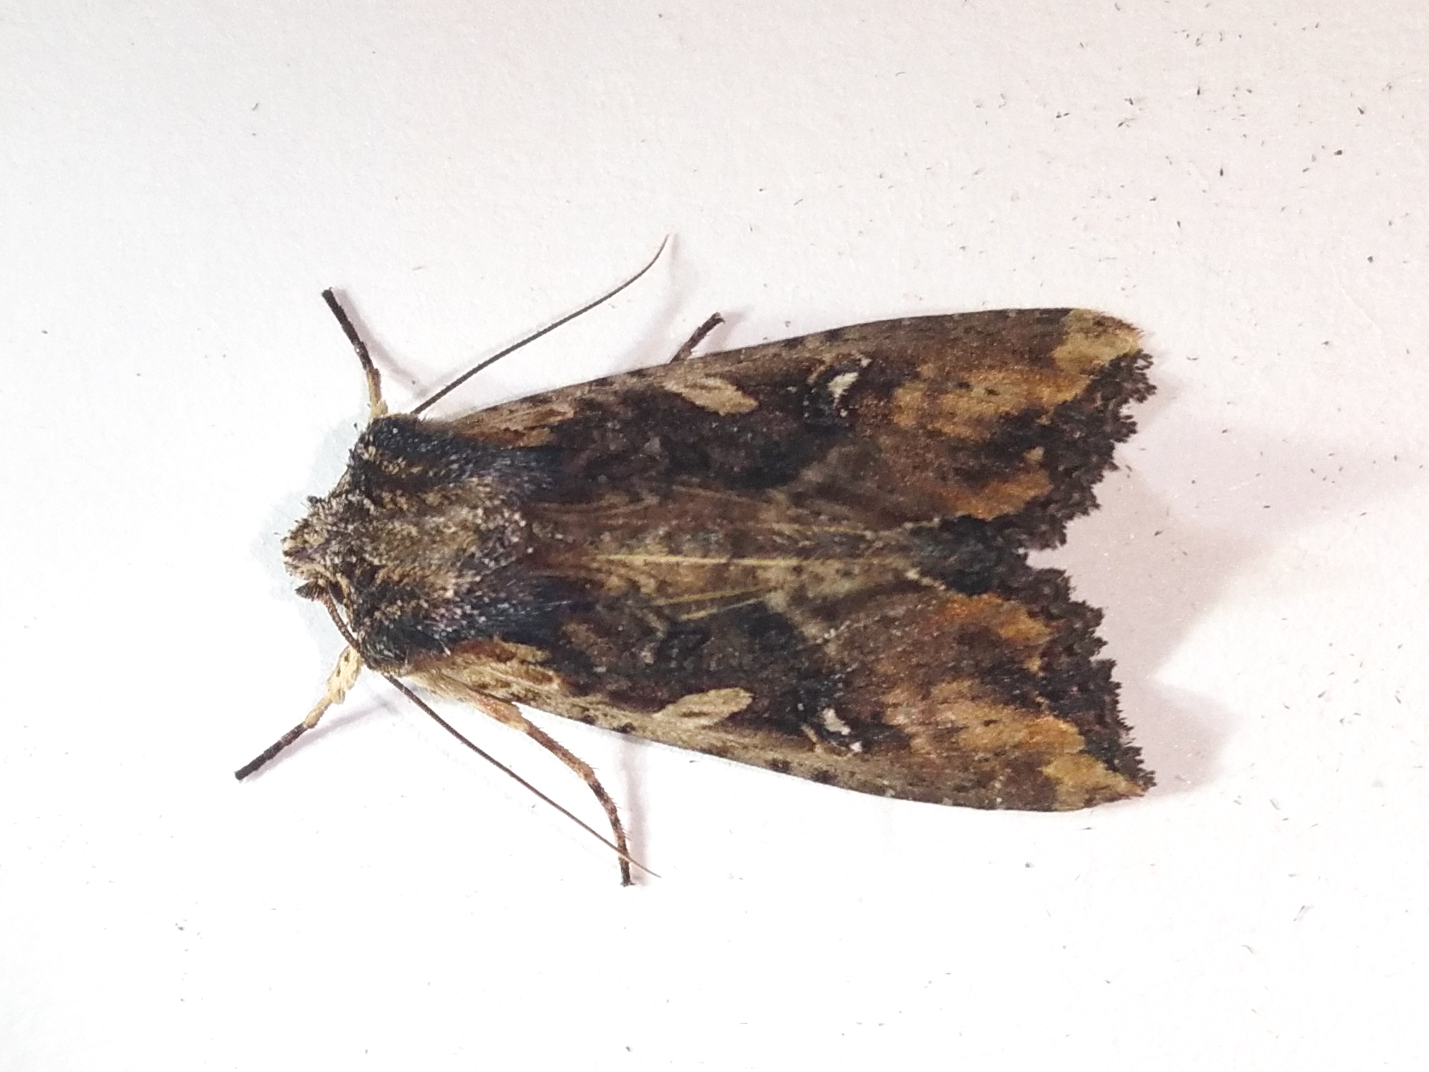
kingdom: Animalia
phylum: Arthropoda
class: Insecta
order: Lepidoptera
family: Noctuidae
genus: Meterana
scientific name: Meterana stipata
